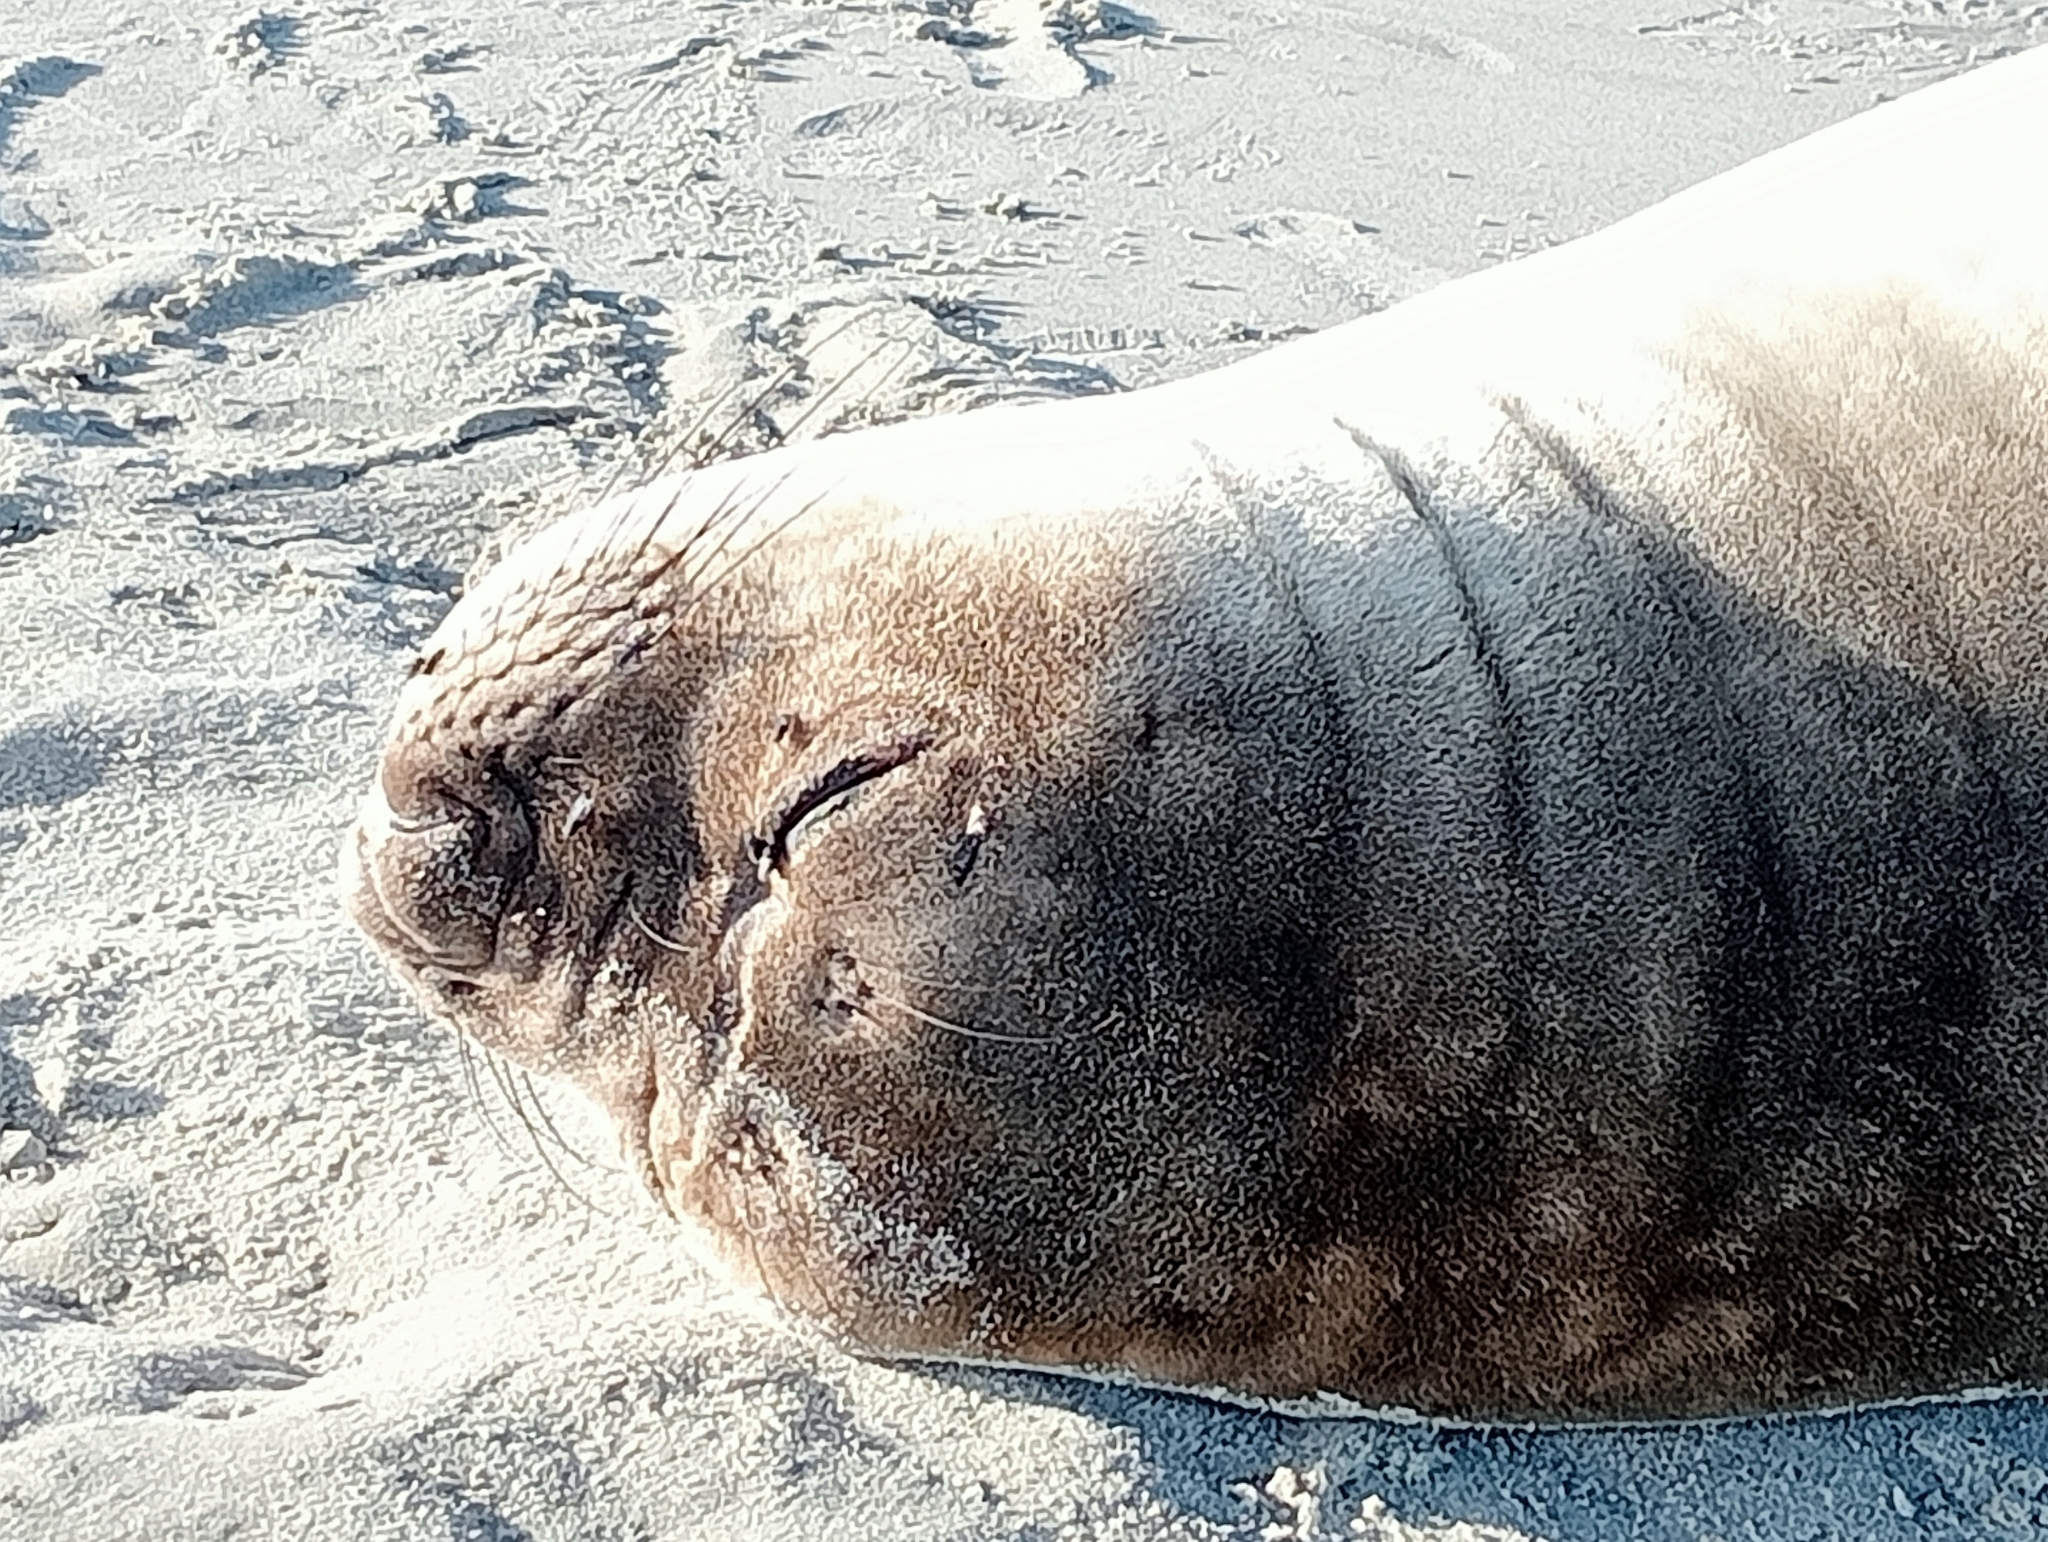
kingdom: Animalia
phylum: Chordata
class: Mammalia
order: Carnivora
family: Phocidae
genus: Mirounga
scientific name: Mirounga leonina
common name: Southern elephant seal
